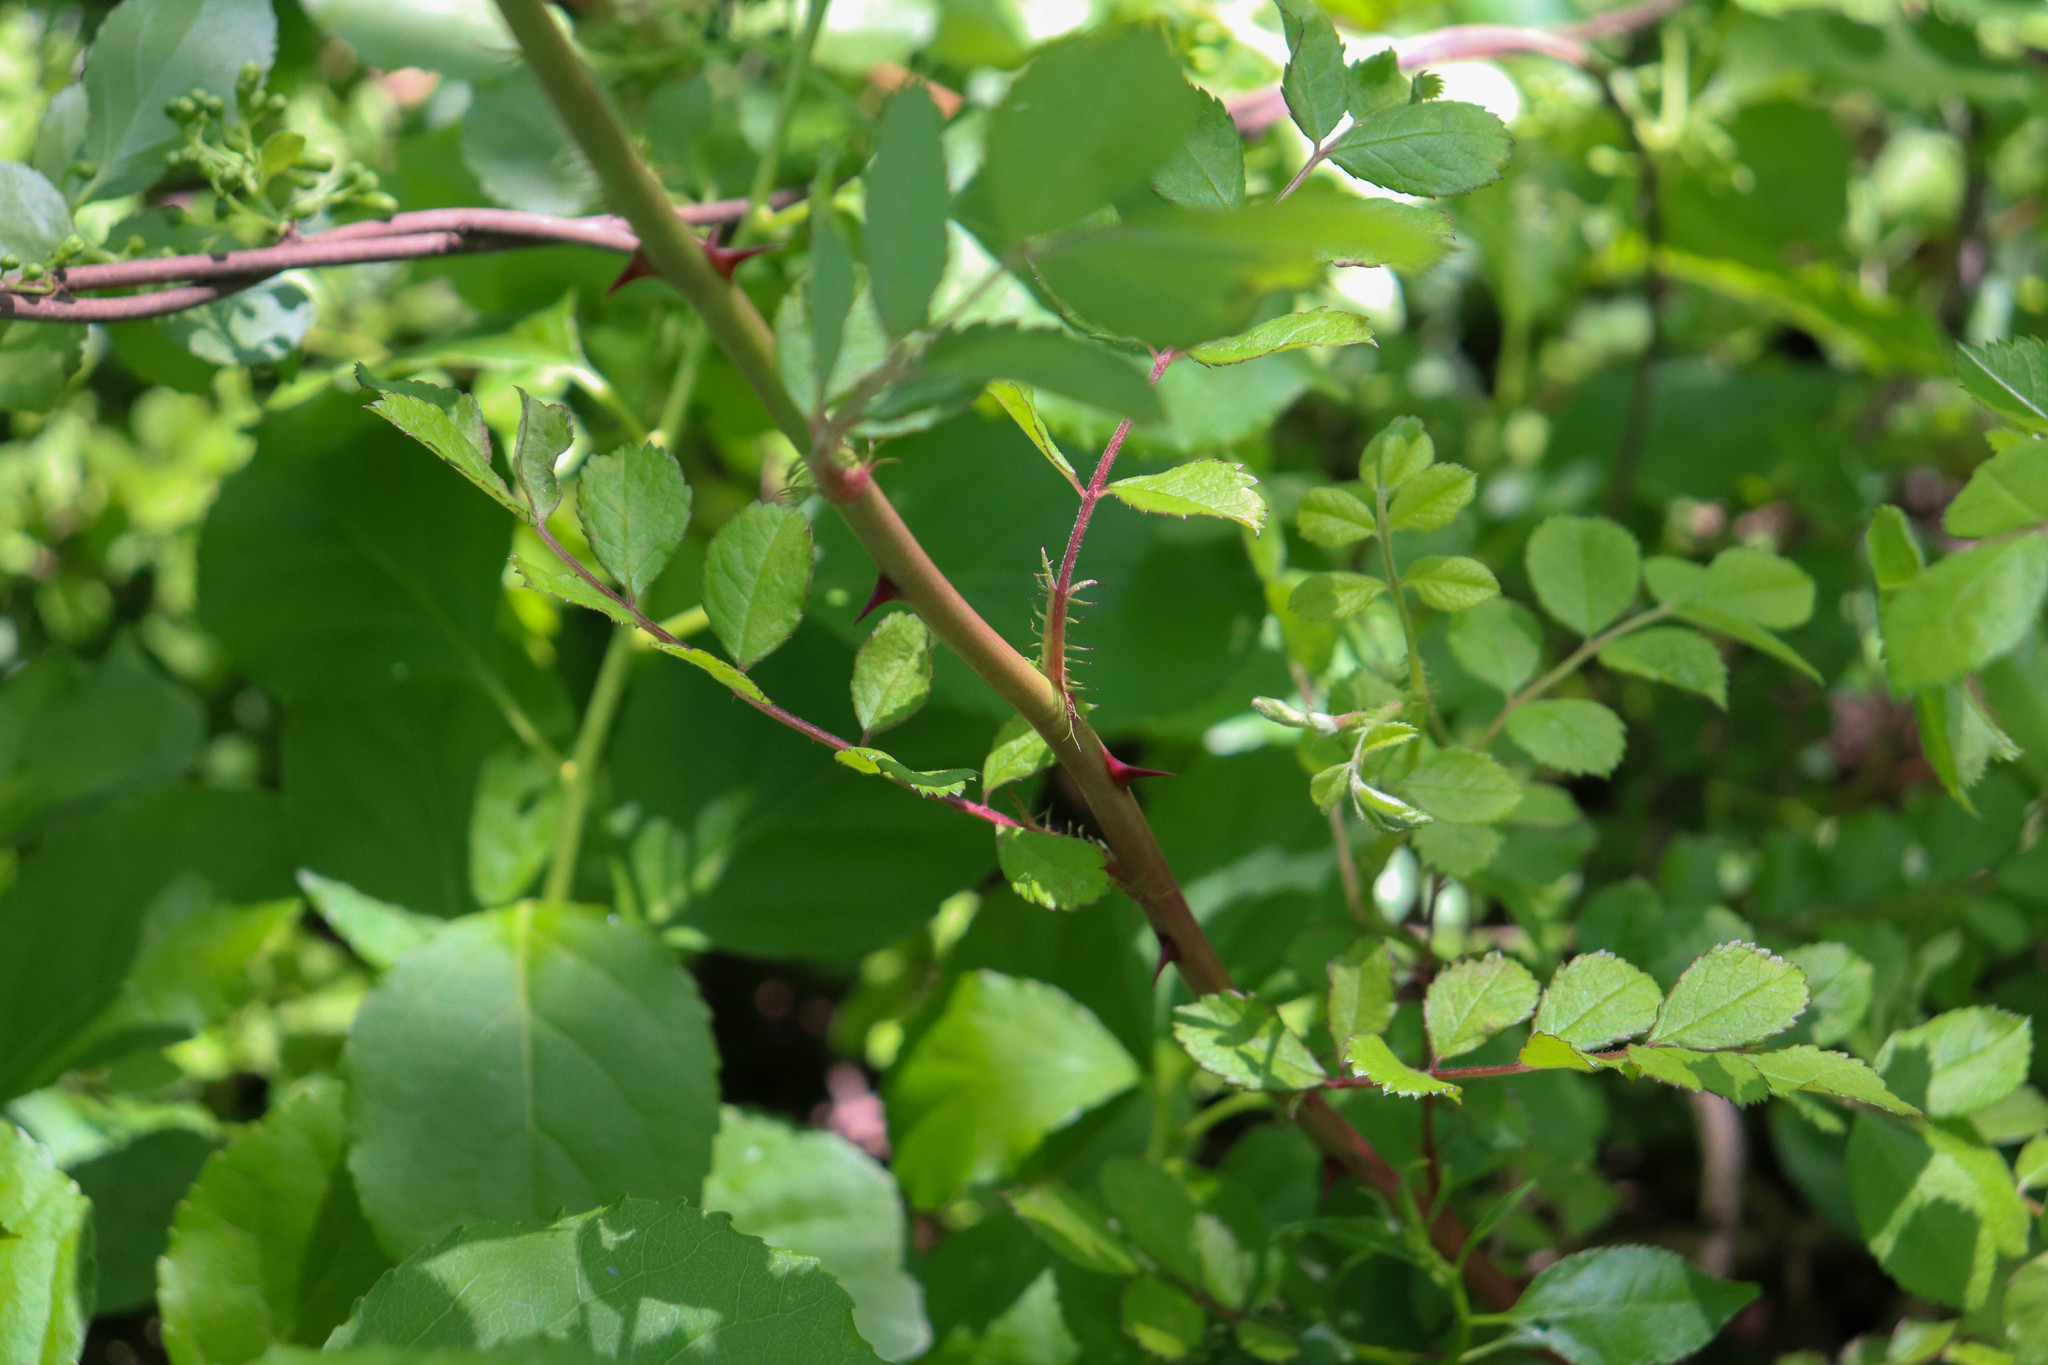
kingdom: Plantae
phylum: Tracheophyta
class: Magnoliopsida
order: Rosales
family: Rosaceae
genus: Rosa
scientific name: Rosa multiflora
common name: Multiflora rose
